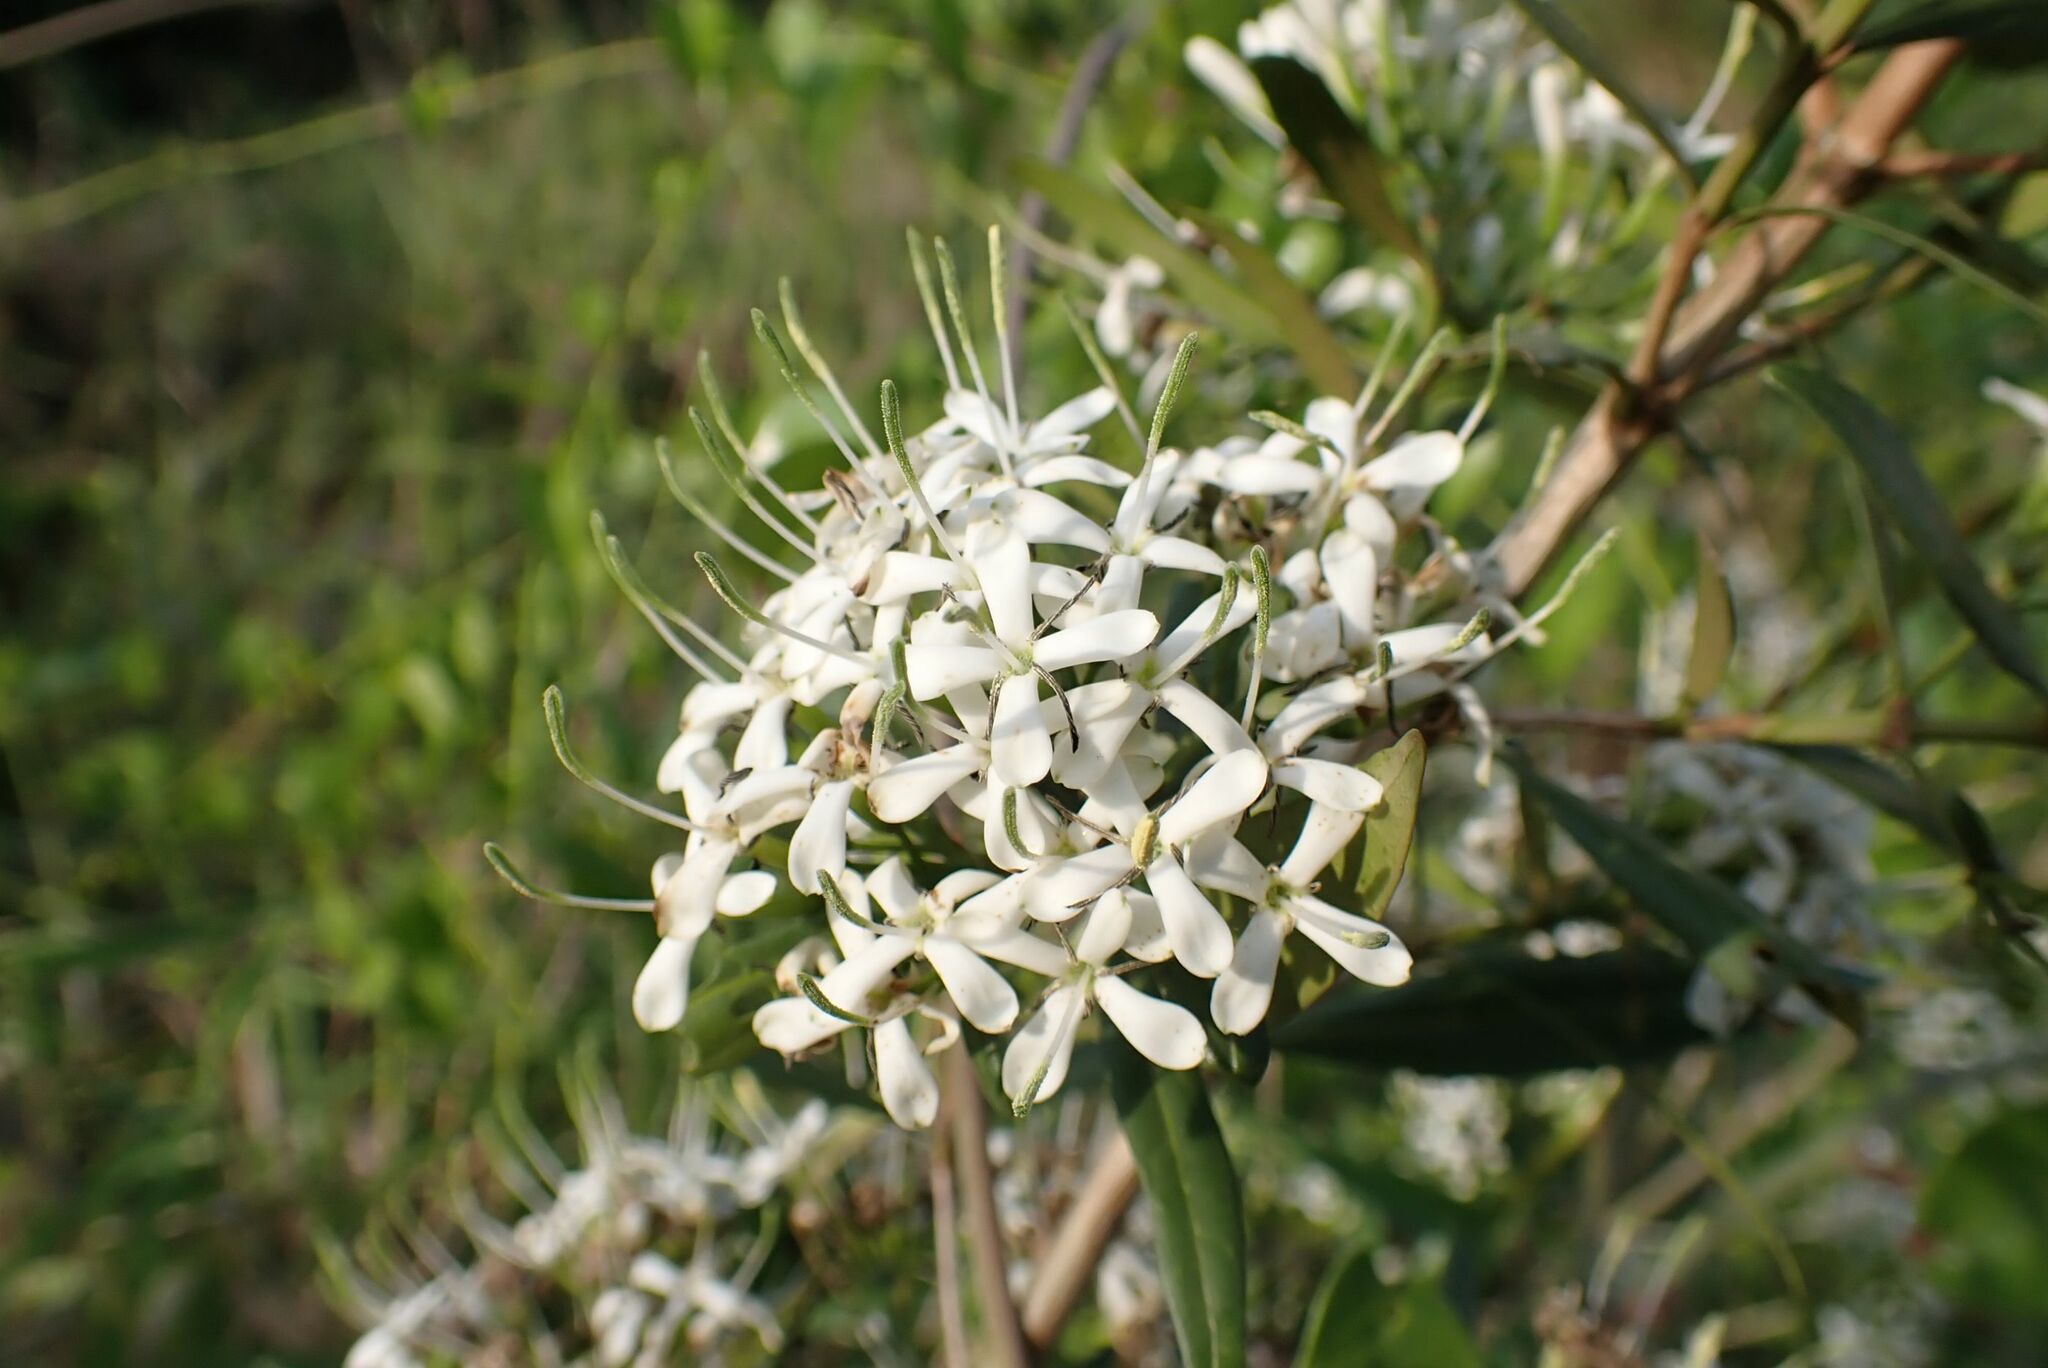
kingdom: Plantae
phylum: Tracheophyta
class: Magnoliopsida
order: Gentianales
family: Rubiaceae
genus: Pavetta
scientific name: Pavetta lanceolata
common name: Weeping brides-bush
